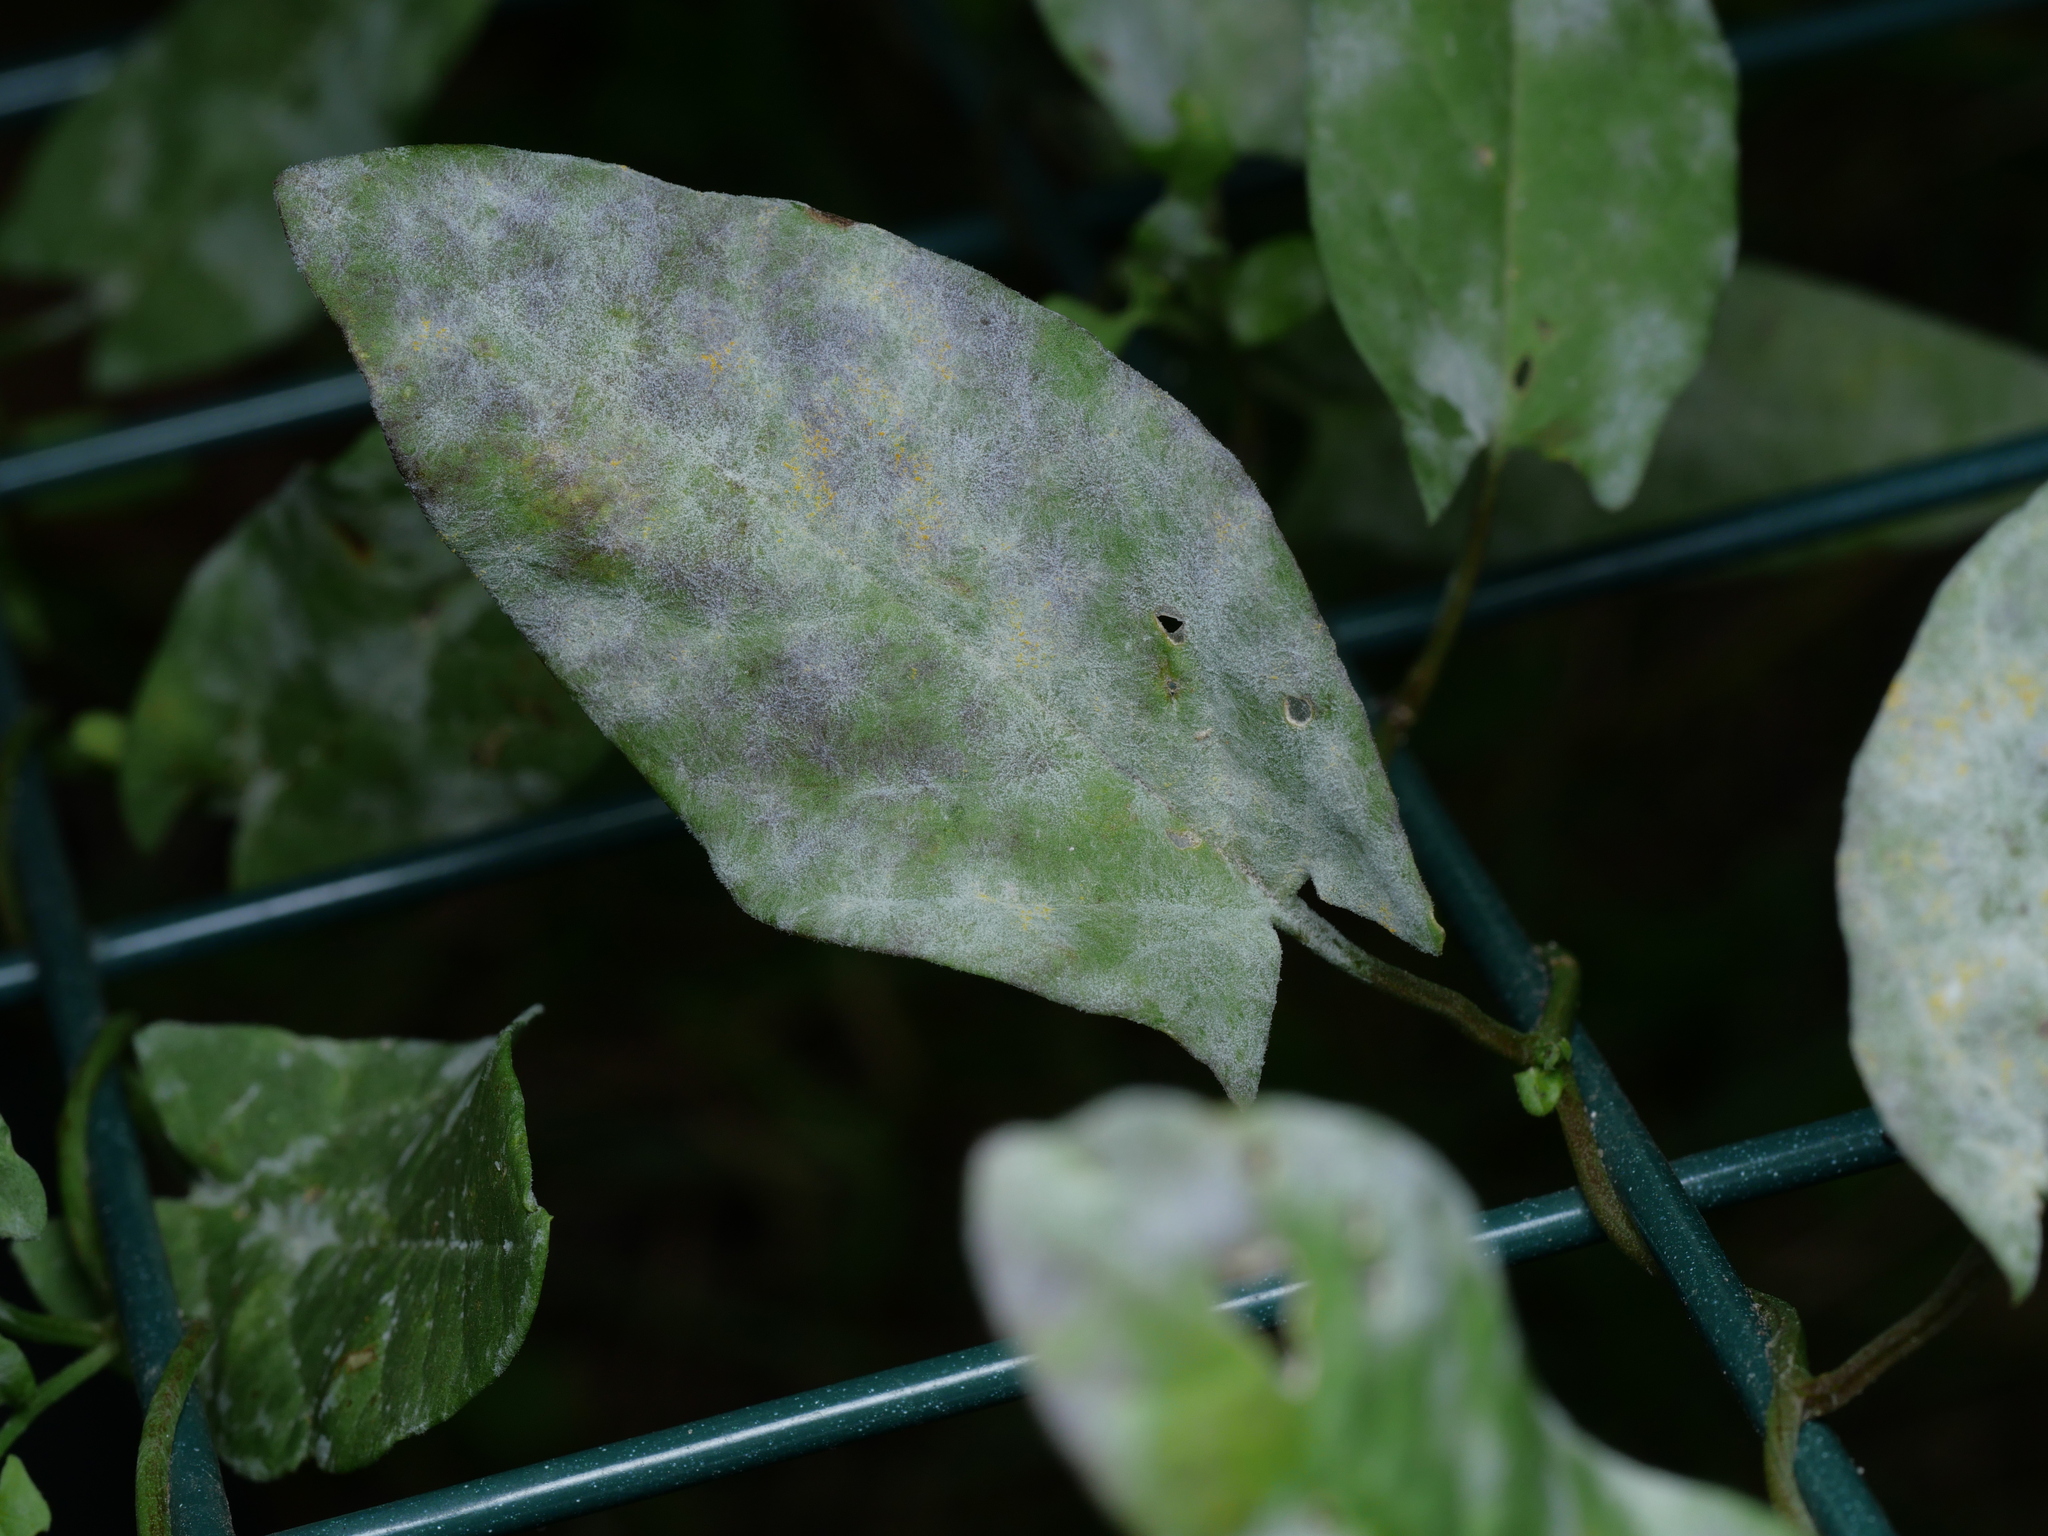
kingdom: Fungi
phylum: Ascomycota
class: Leotiomycetes
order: Helotiales
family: Erysiphaceae
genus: Erysiphe
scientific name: Erysiphe convolvuli
